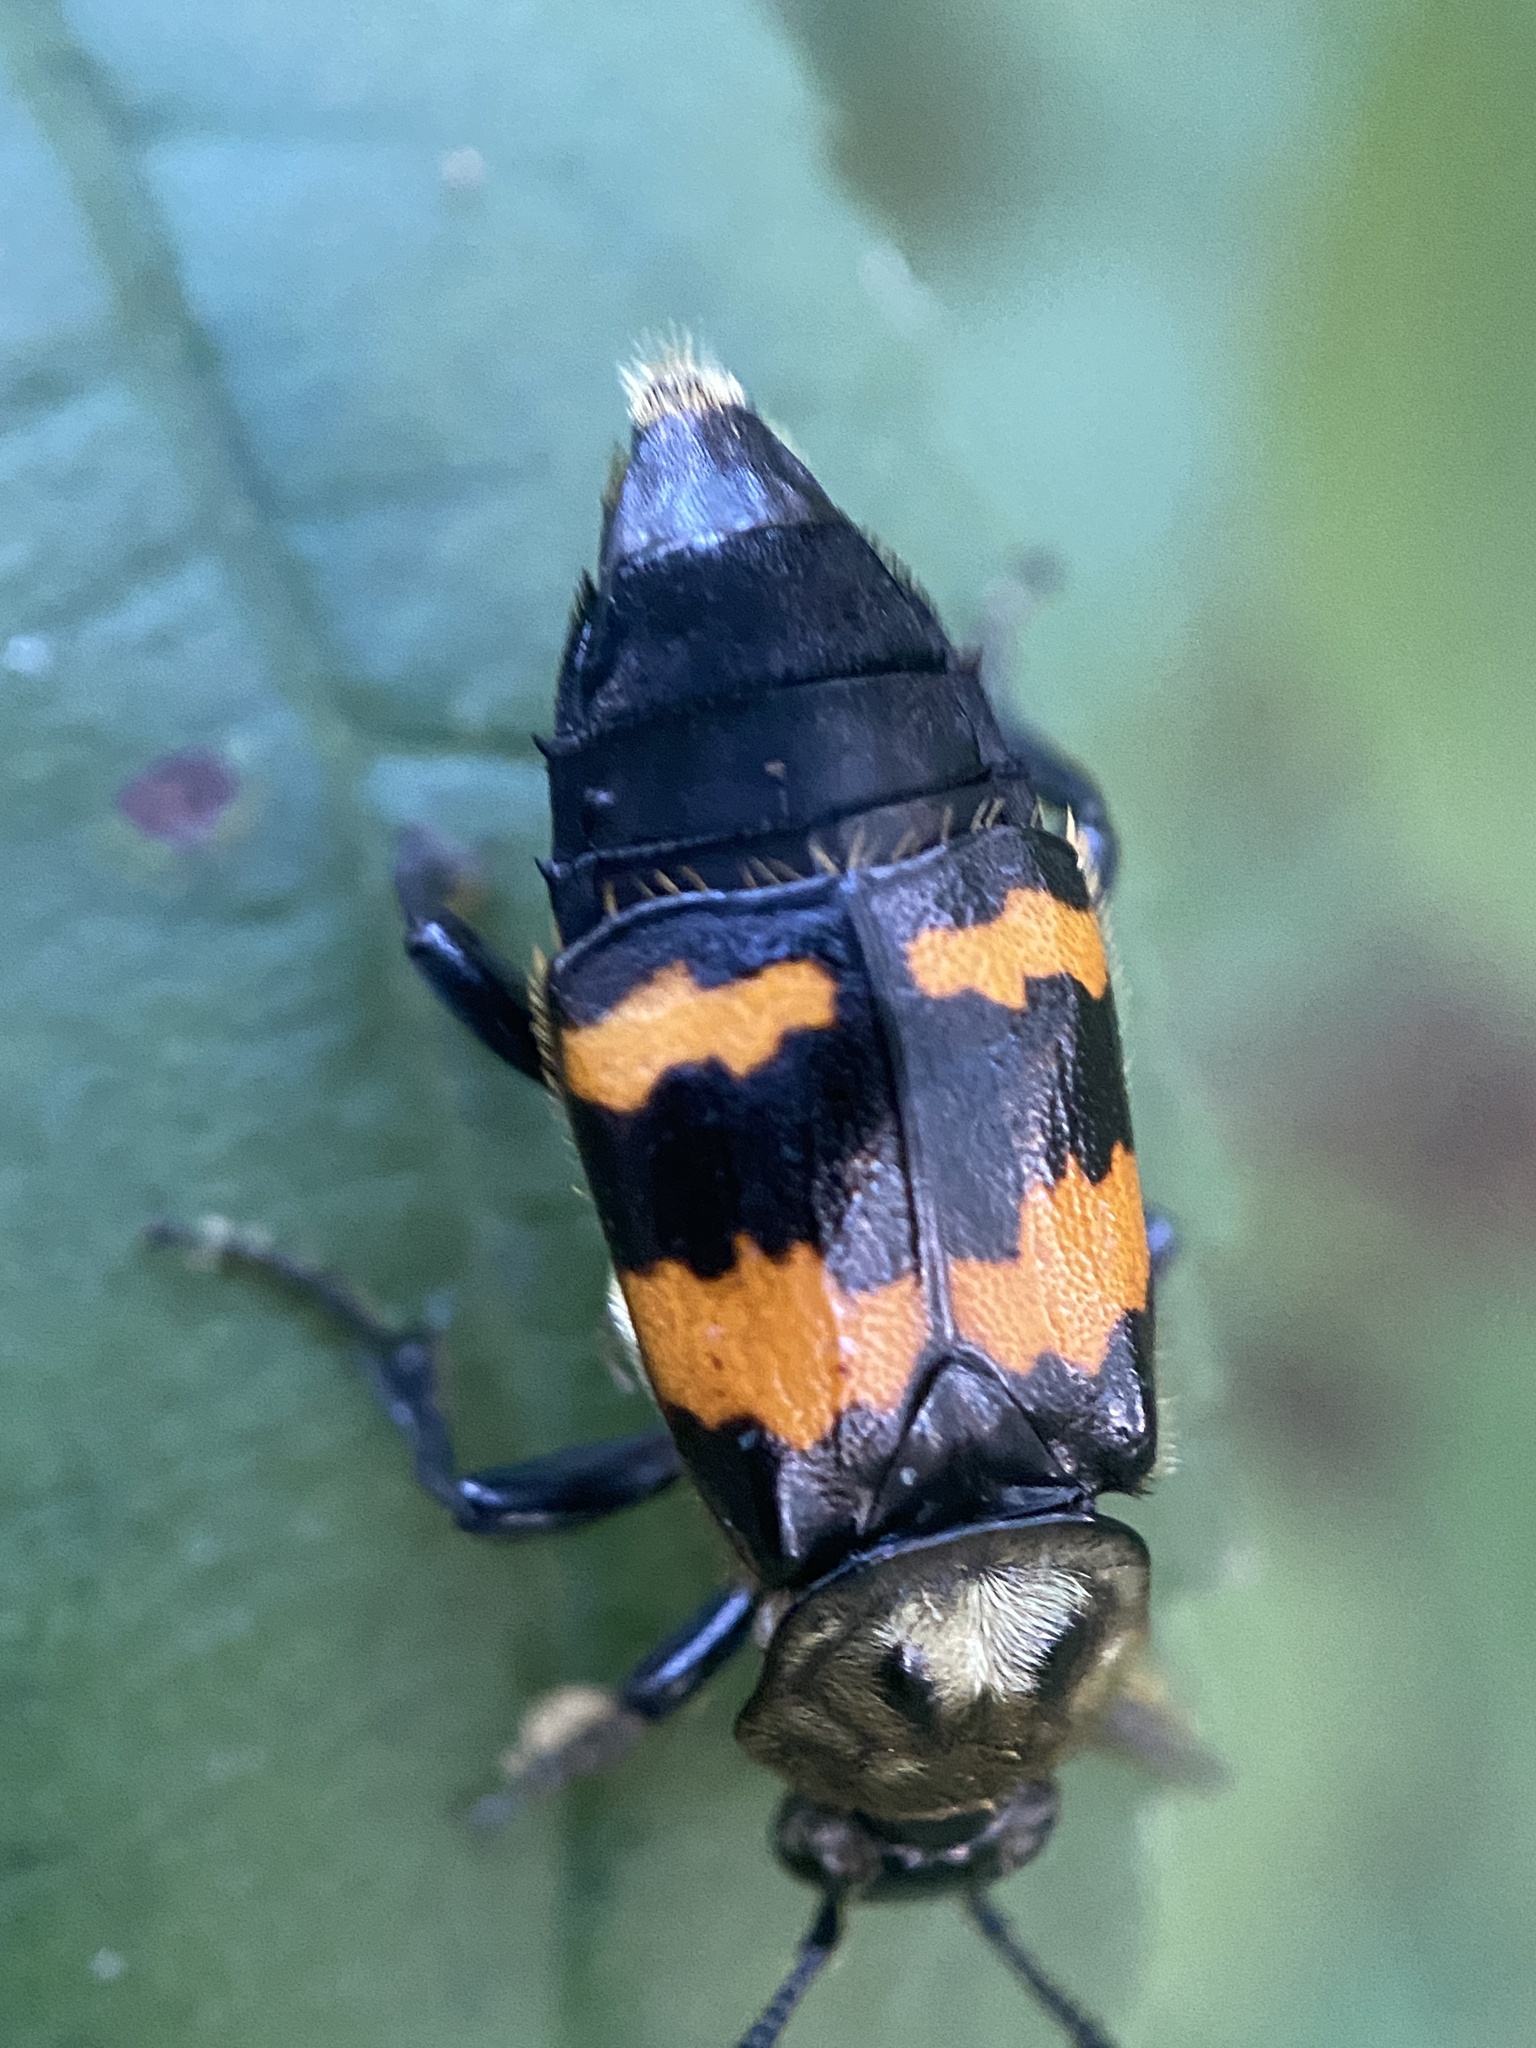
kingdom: Animalia
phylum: Arthropoda
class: Insecta
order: Coleoptera
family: Staphylinidae
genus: Nicrophorus
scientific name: Nicrophorus tomentosus
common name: Tomentose burying beetle
